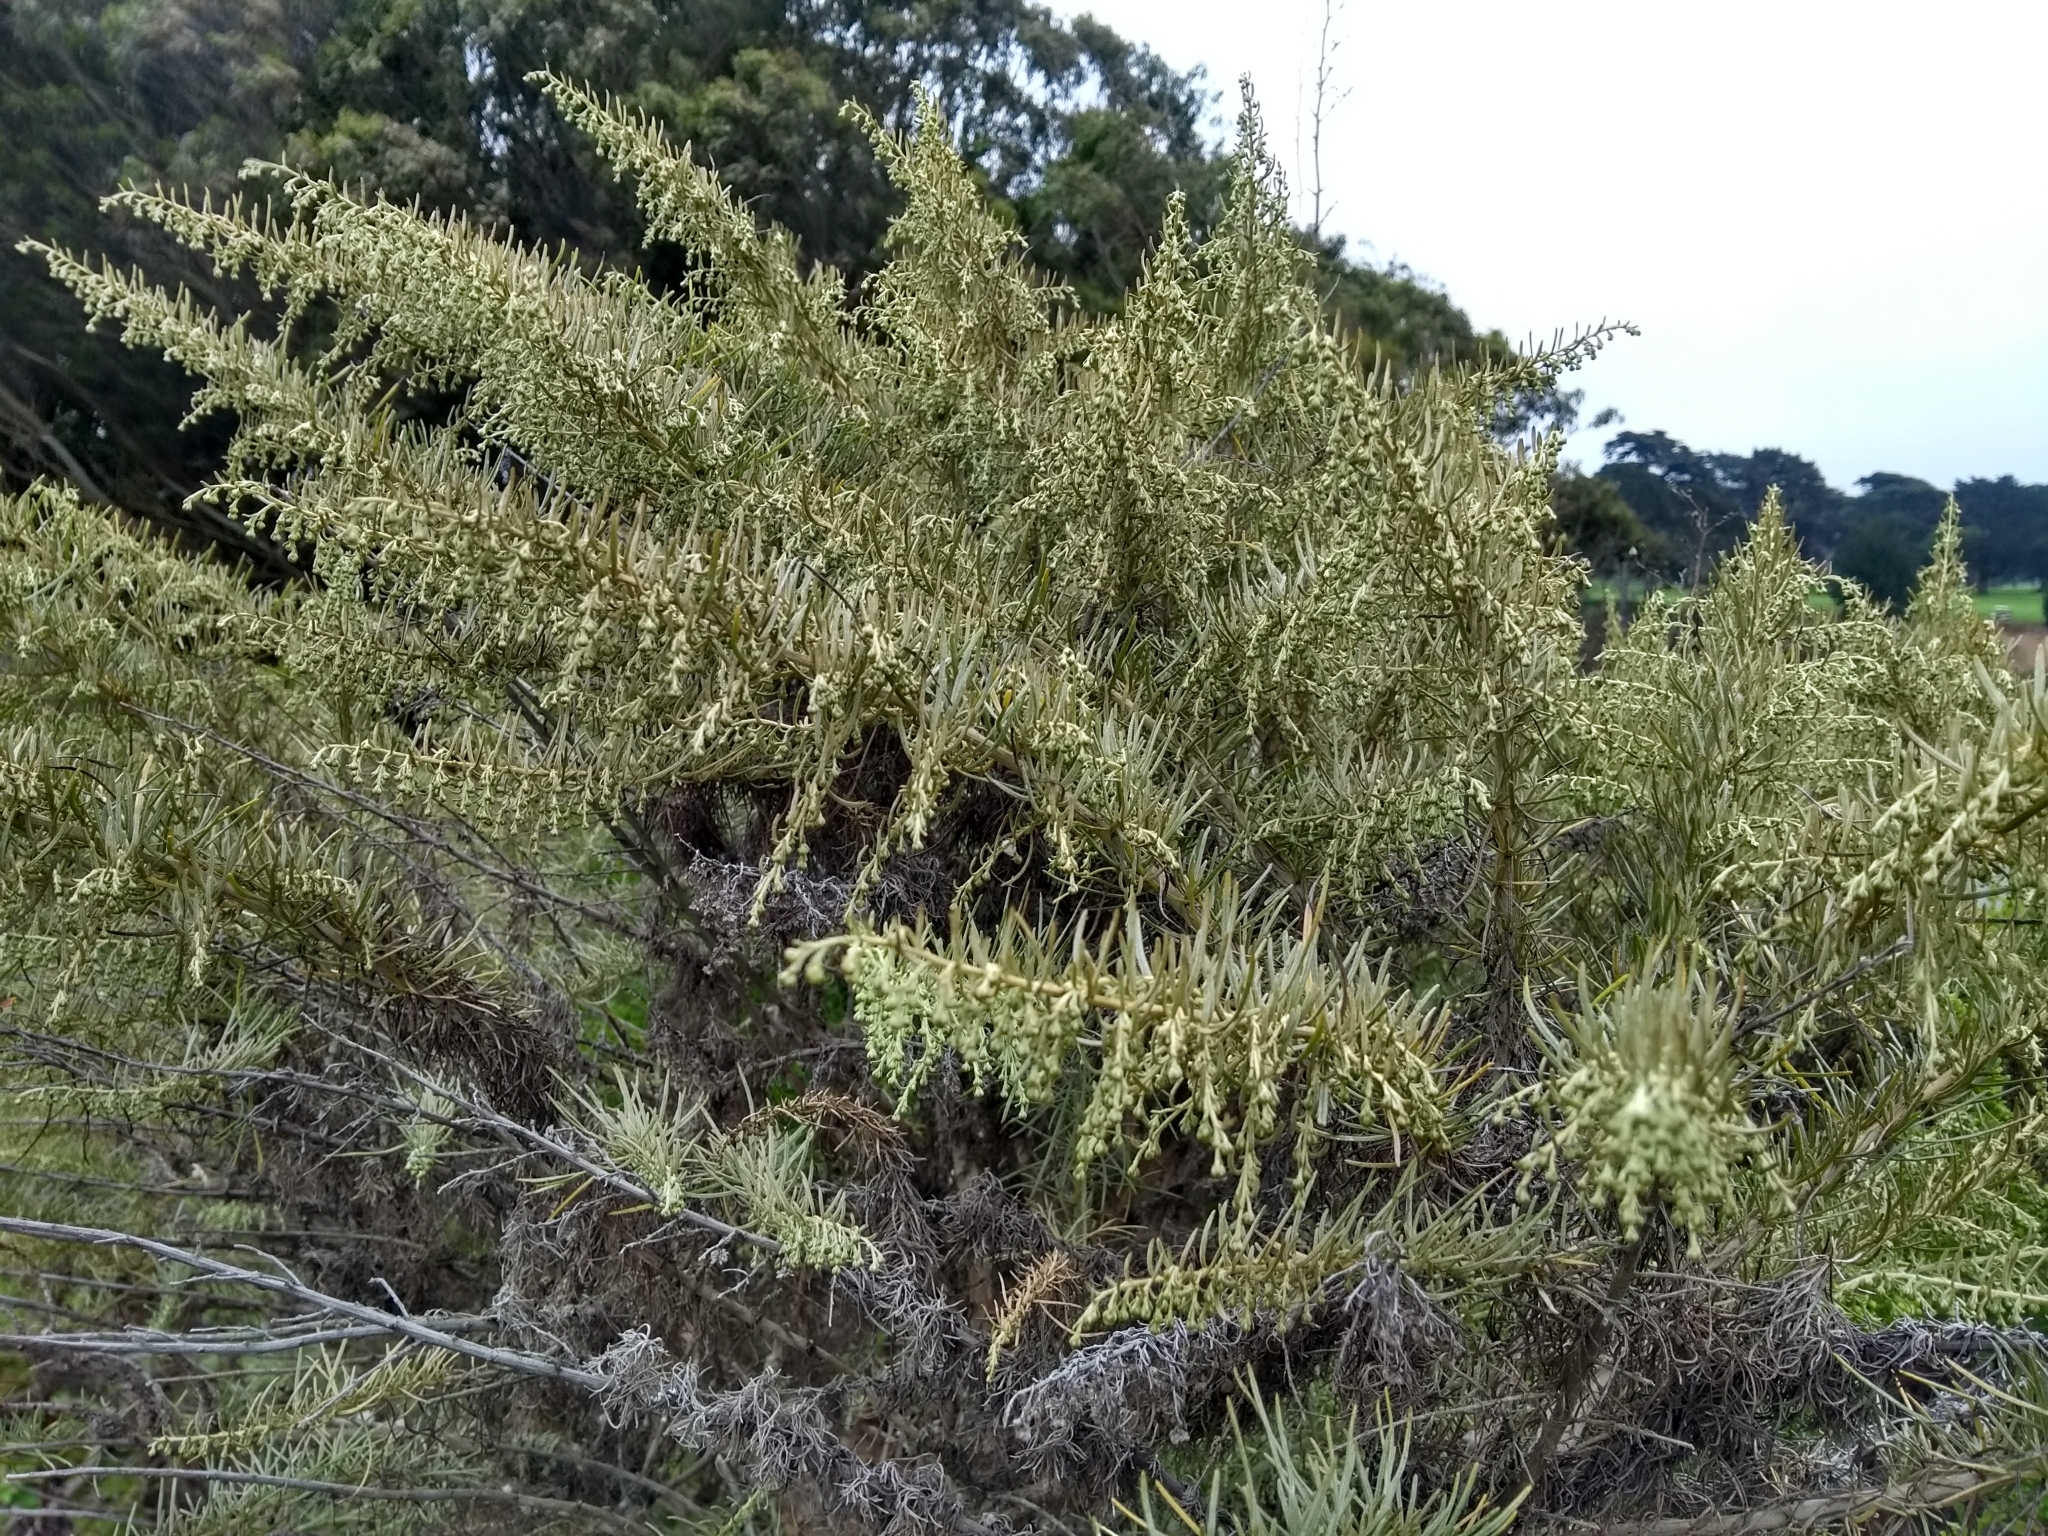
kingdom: Plantae
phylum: Tracheophyta
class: Magnoliopsida
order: Asterales
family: Asteraceae
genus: Artemisia
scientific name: Artemisia californica
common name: California sagebrush
